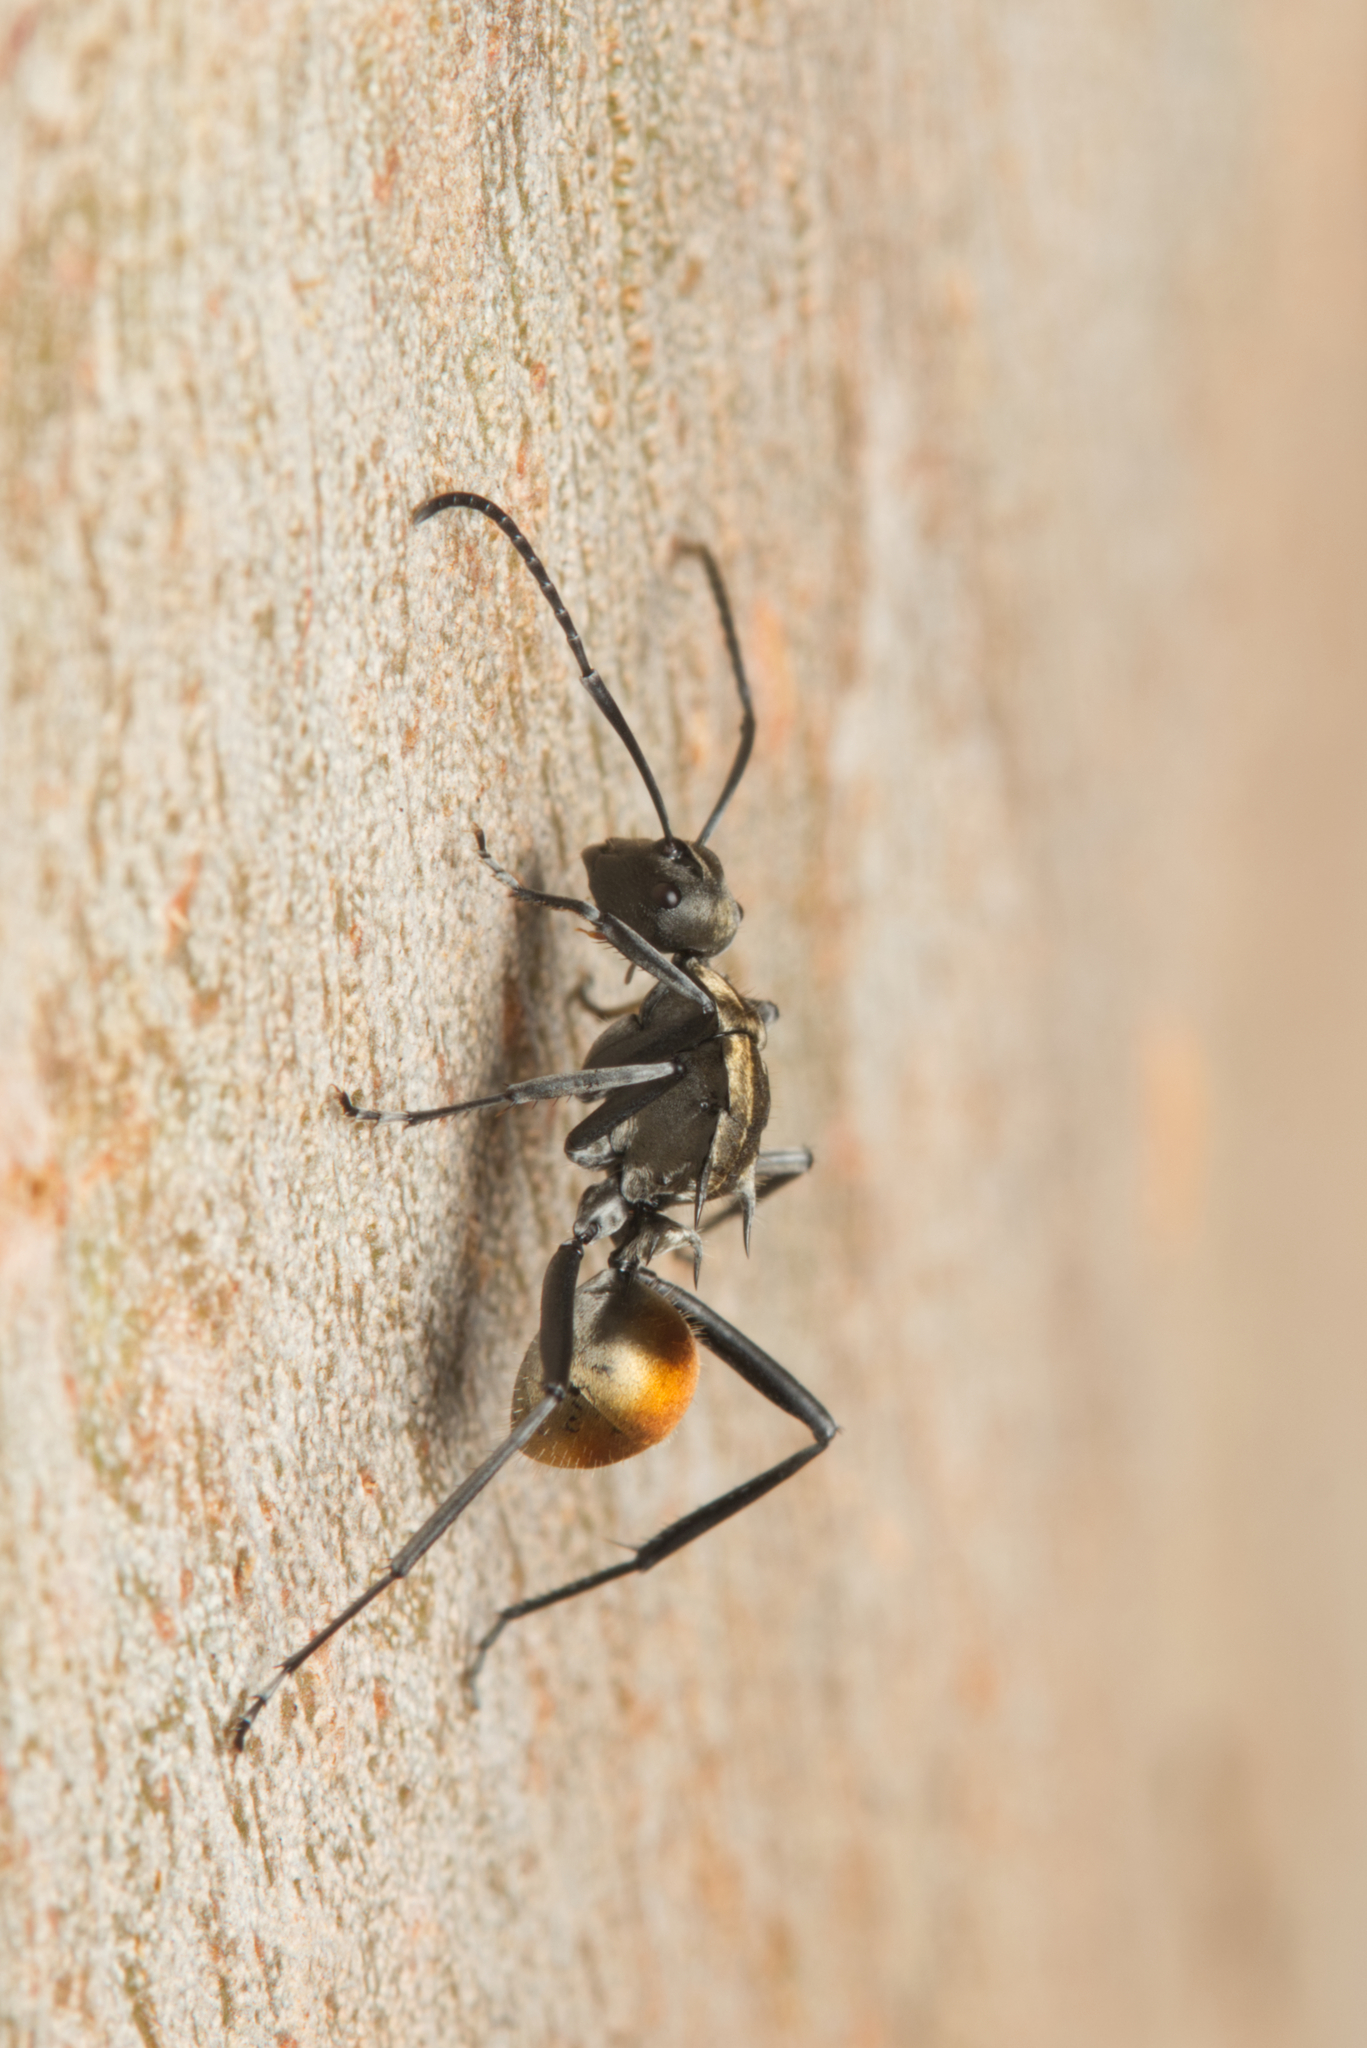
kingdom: Animalia
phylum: Arthropoda
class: Insecta
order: Hymenoptera
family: Formicidae
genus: Polyrhachis
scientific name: Polyrhachis ammon
